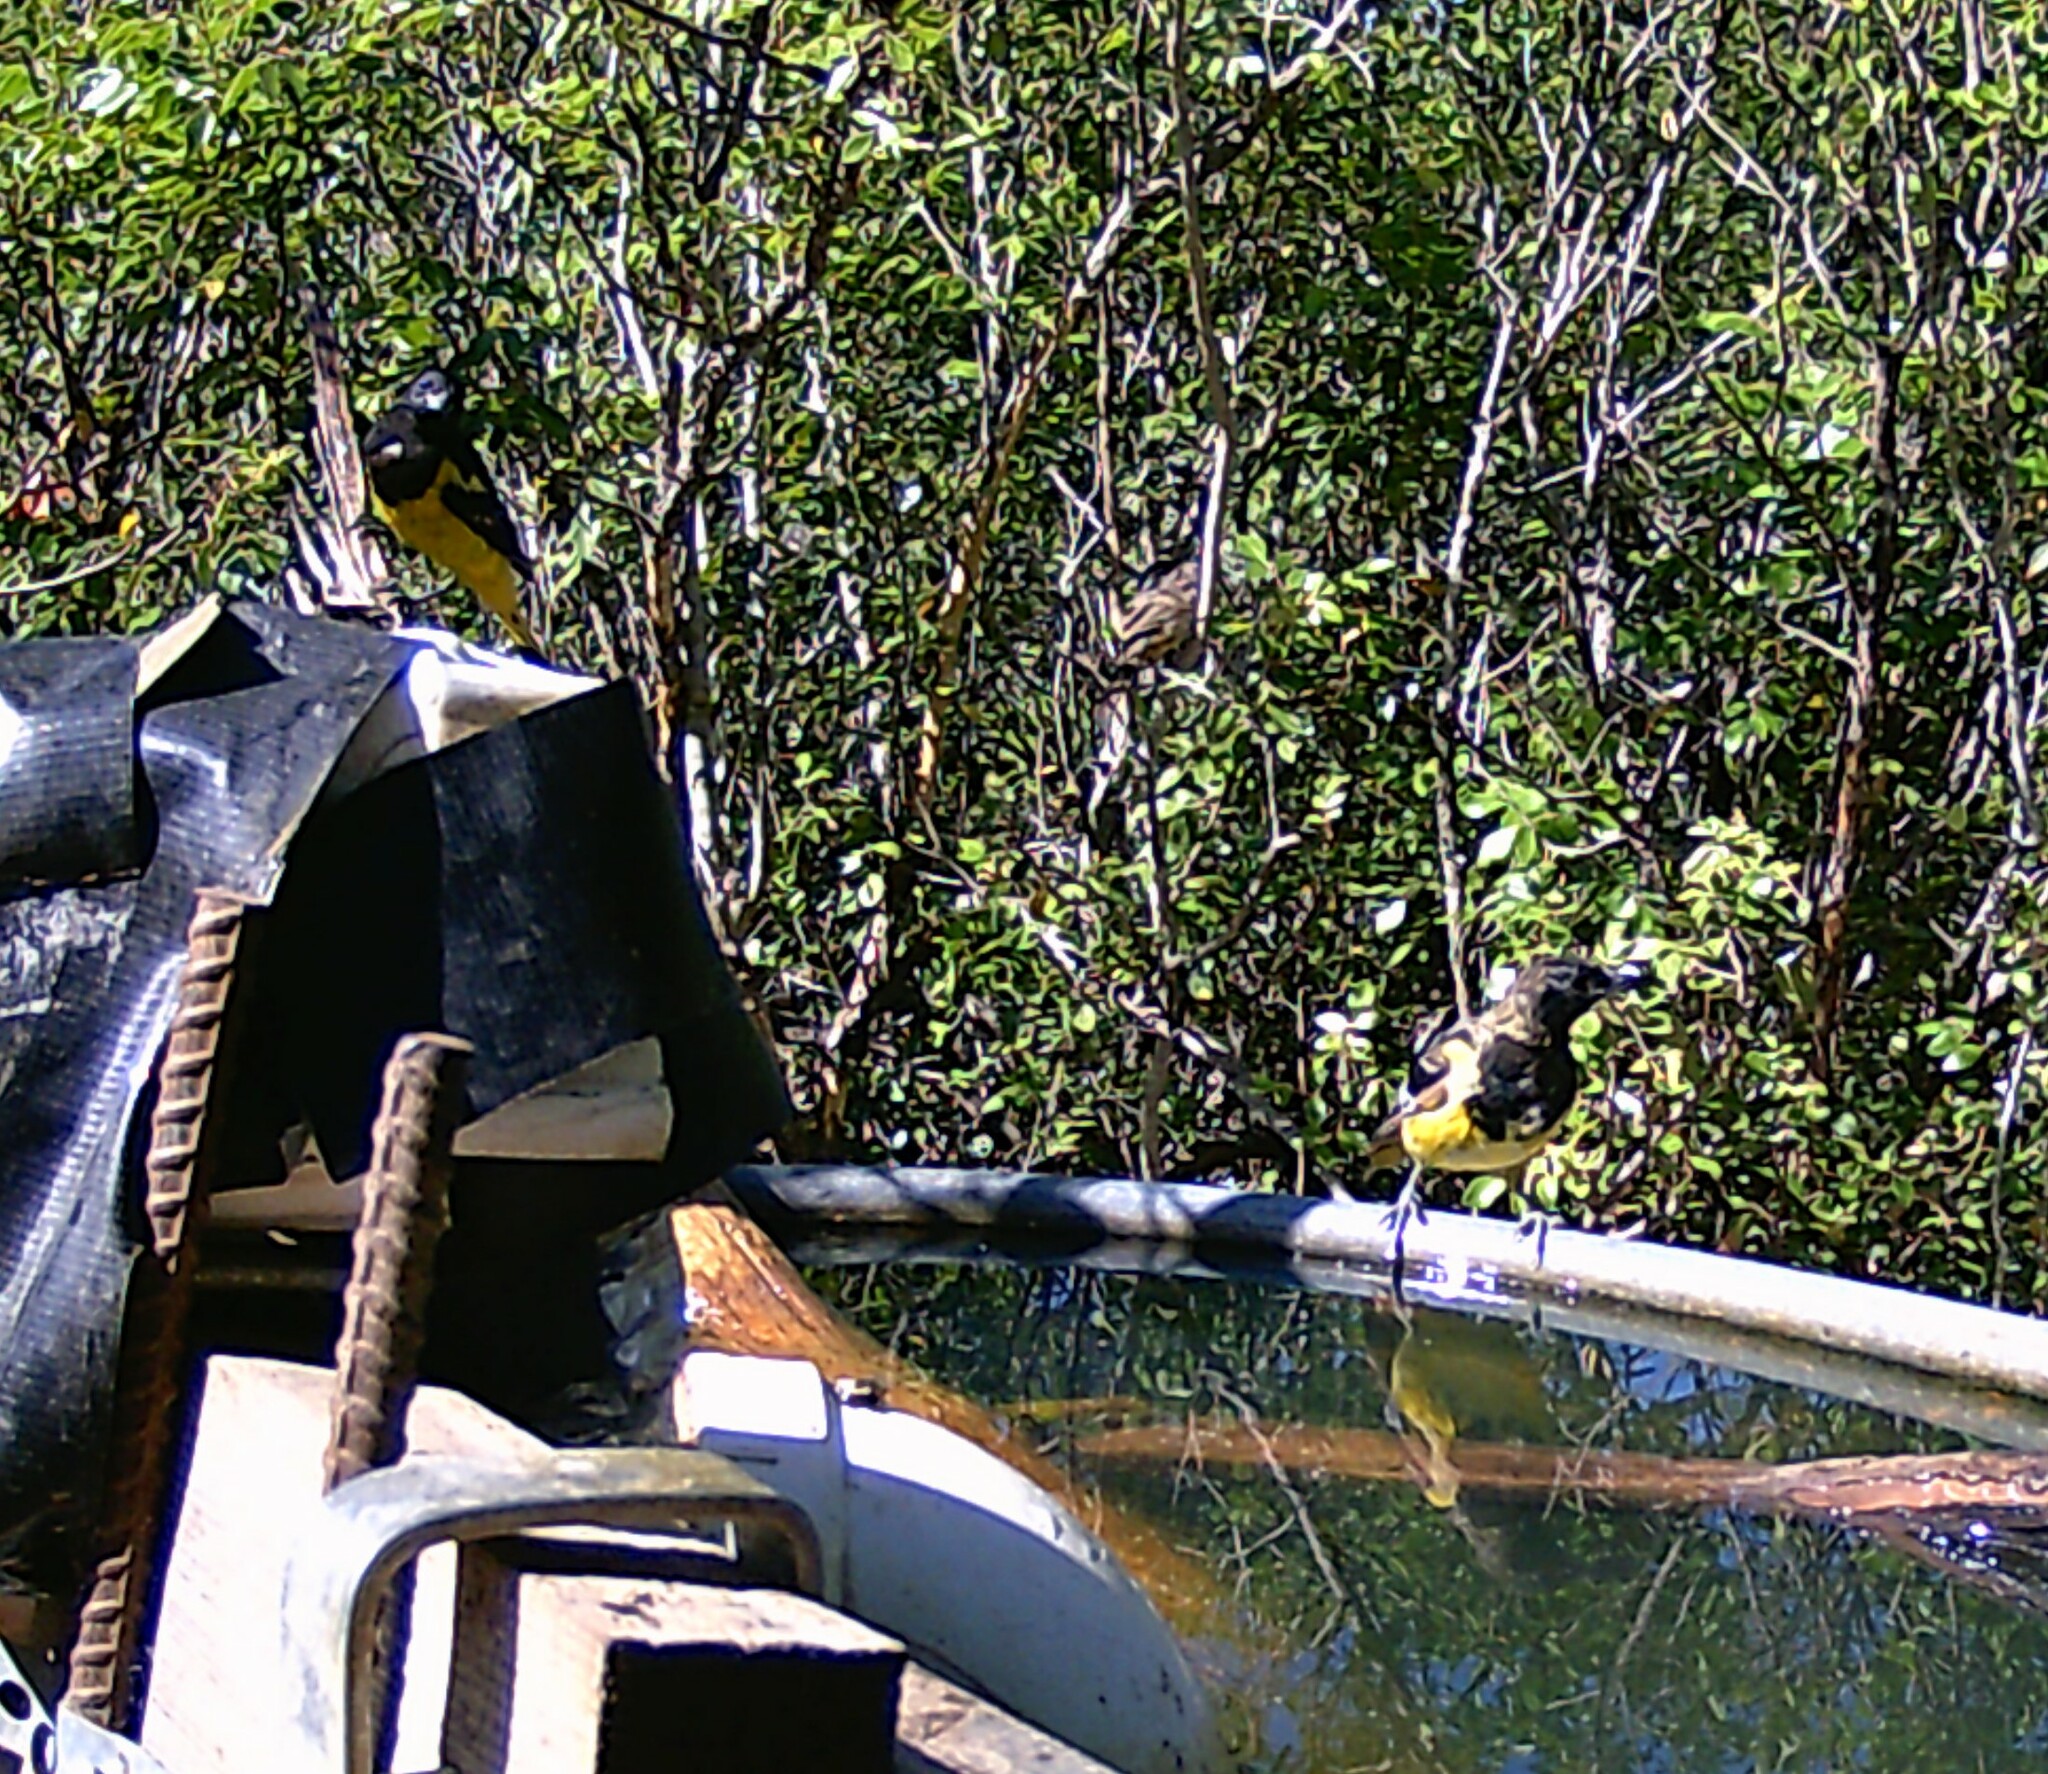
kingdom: Animalia
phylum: Chordata
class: Aves
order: Passeriformes
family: Icteridae
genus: Icterus
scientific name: Icterus parisorum
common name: Scott's oriole
